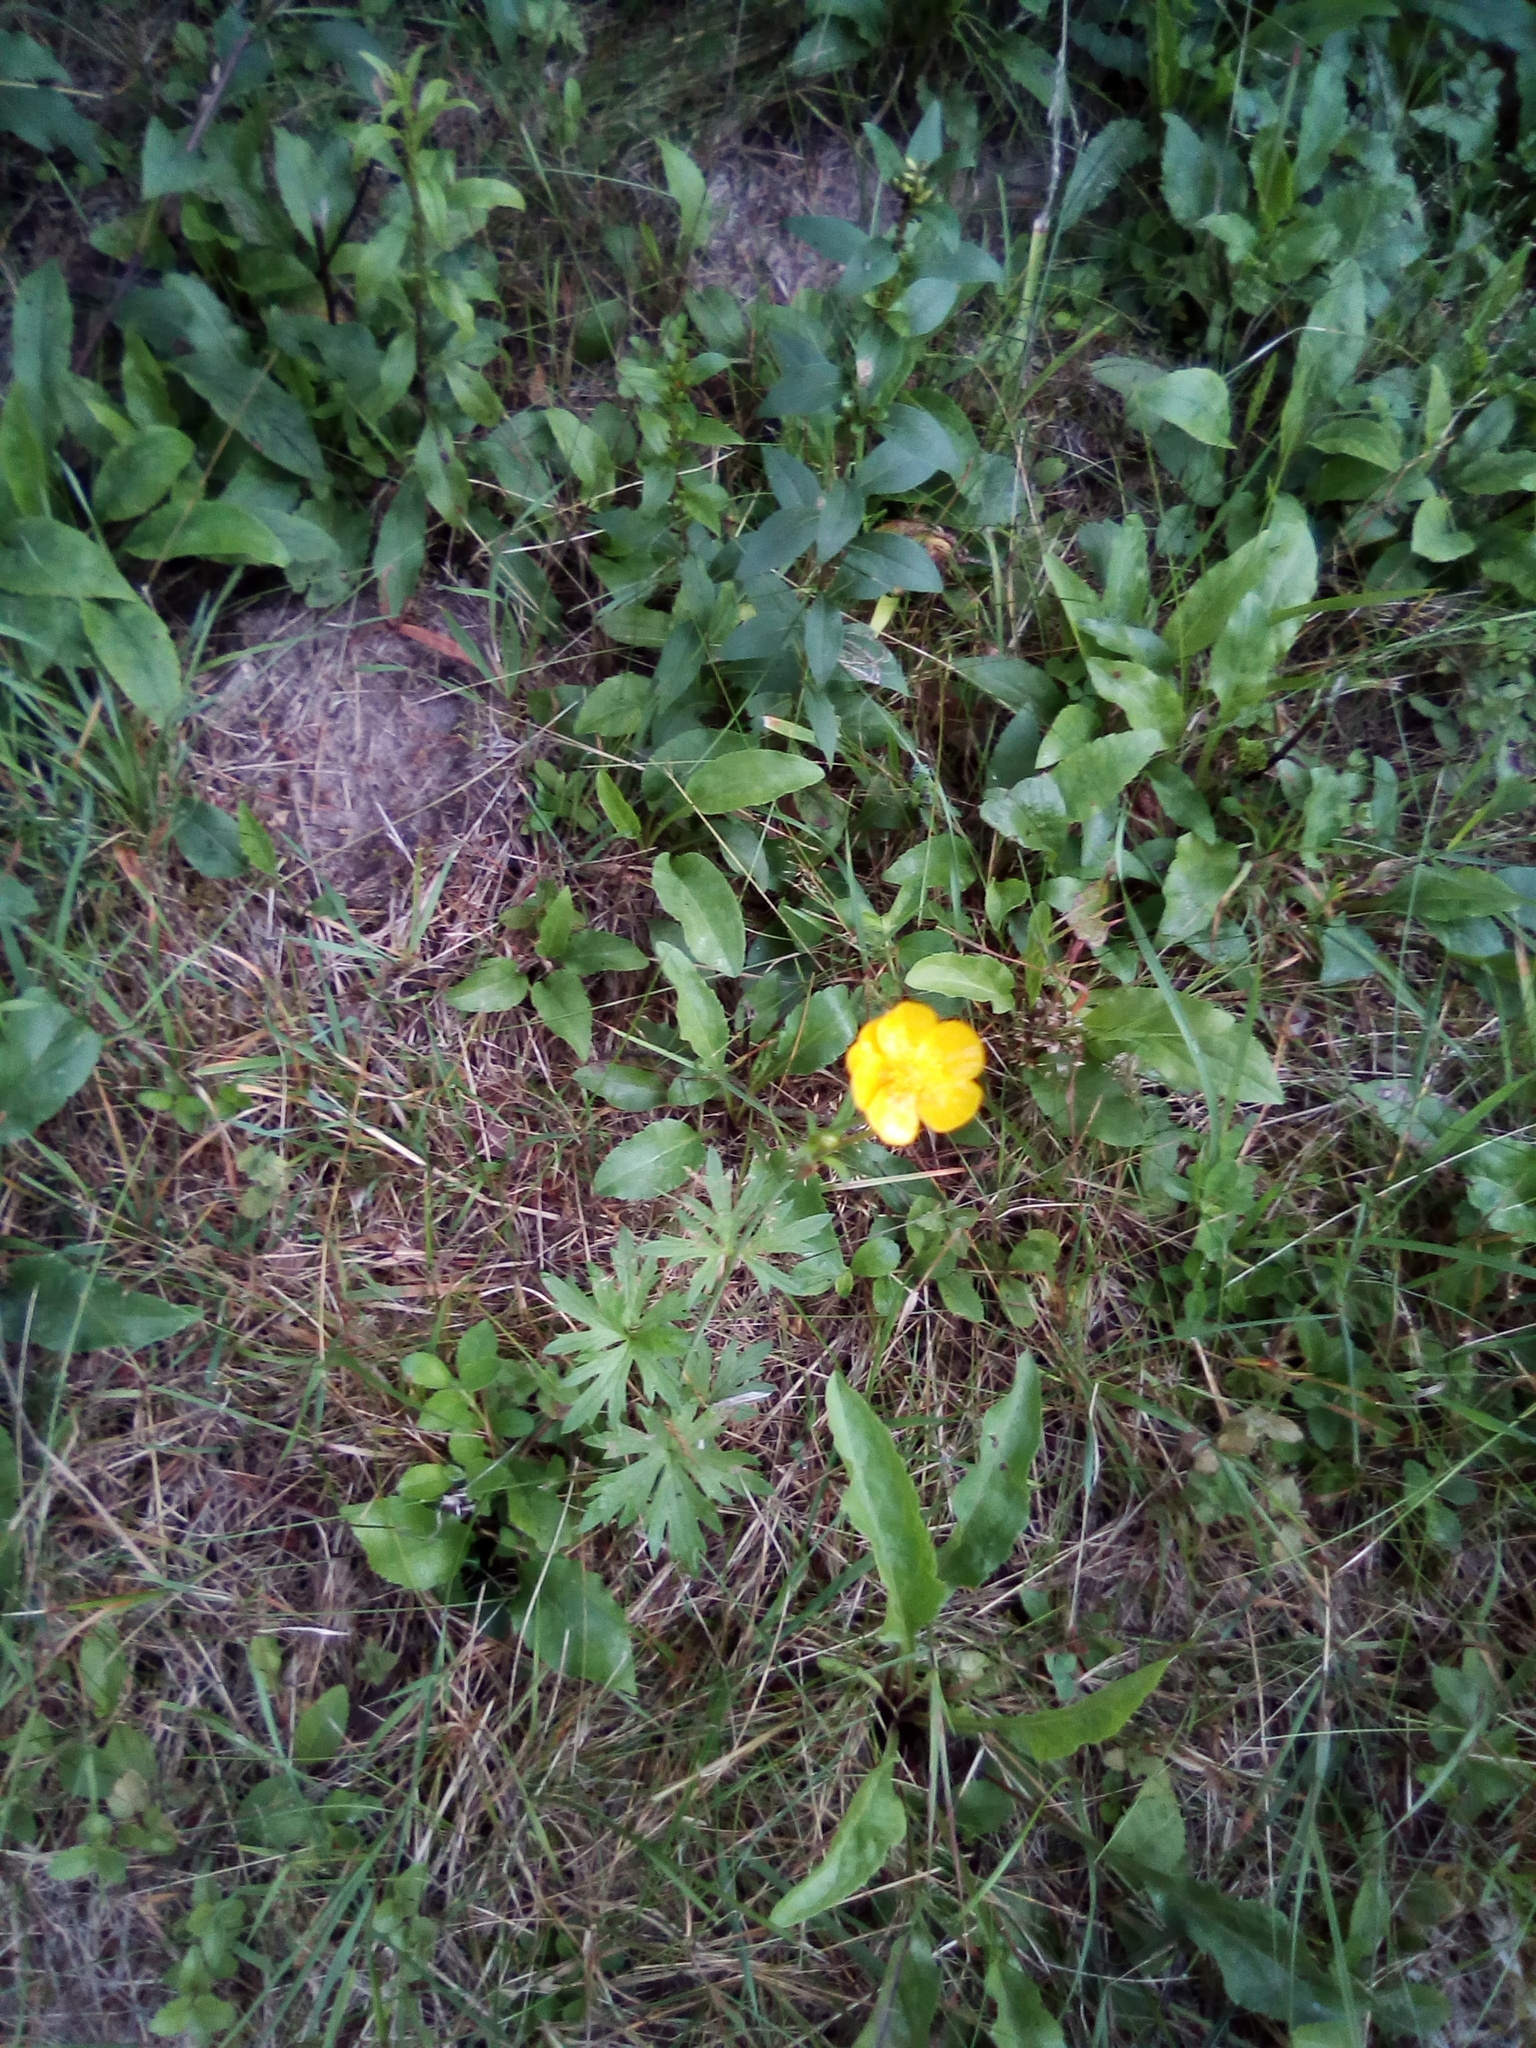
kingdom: Plantae
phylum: Tracheophyta
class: Magnoliopsida
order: Ranunculales
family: Ranunculaceae
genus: Ranunculus
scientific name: Ranunculus acris
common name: Meadow buttercup
